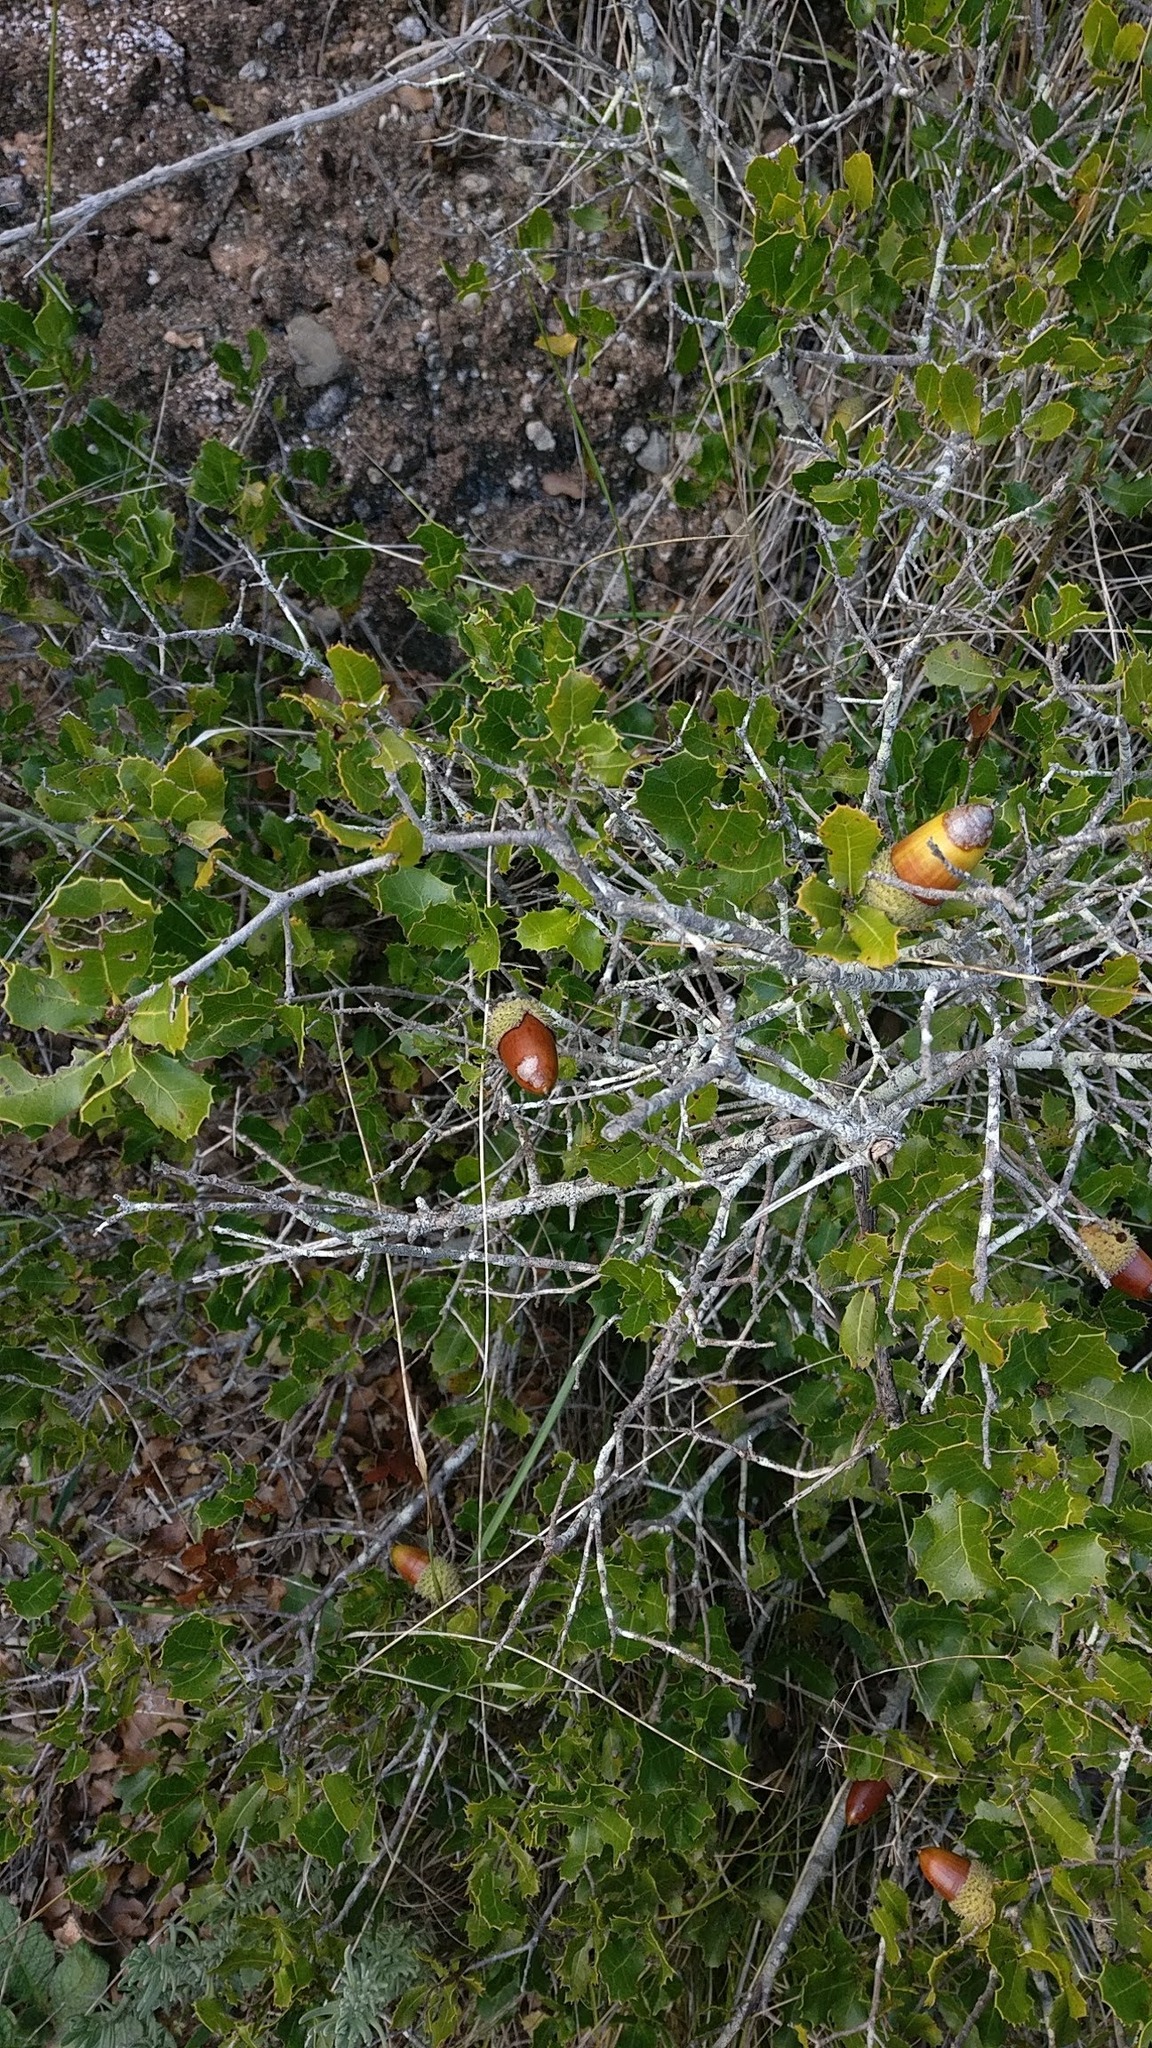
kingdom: Plantae
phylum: Tracheophyta
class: Magnoliopsida
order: Fagales
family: Fagaceae
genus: Quercus
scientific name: Quercus coccifera
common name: Kermes oak
